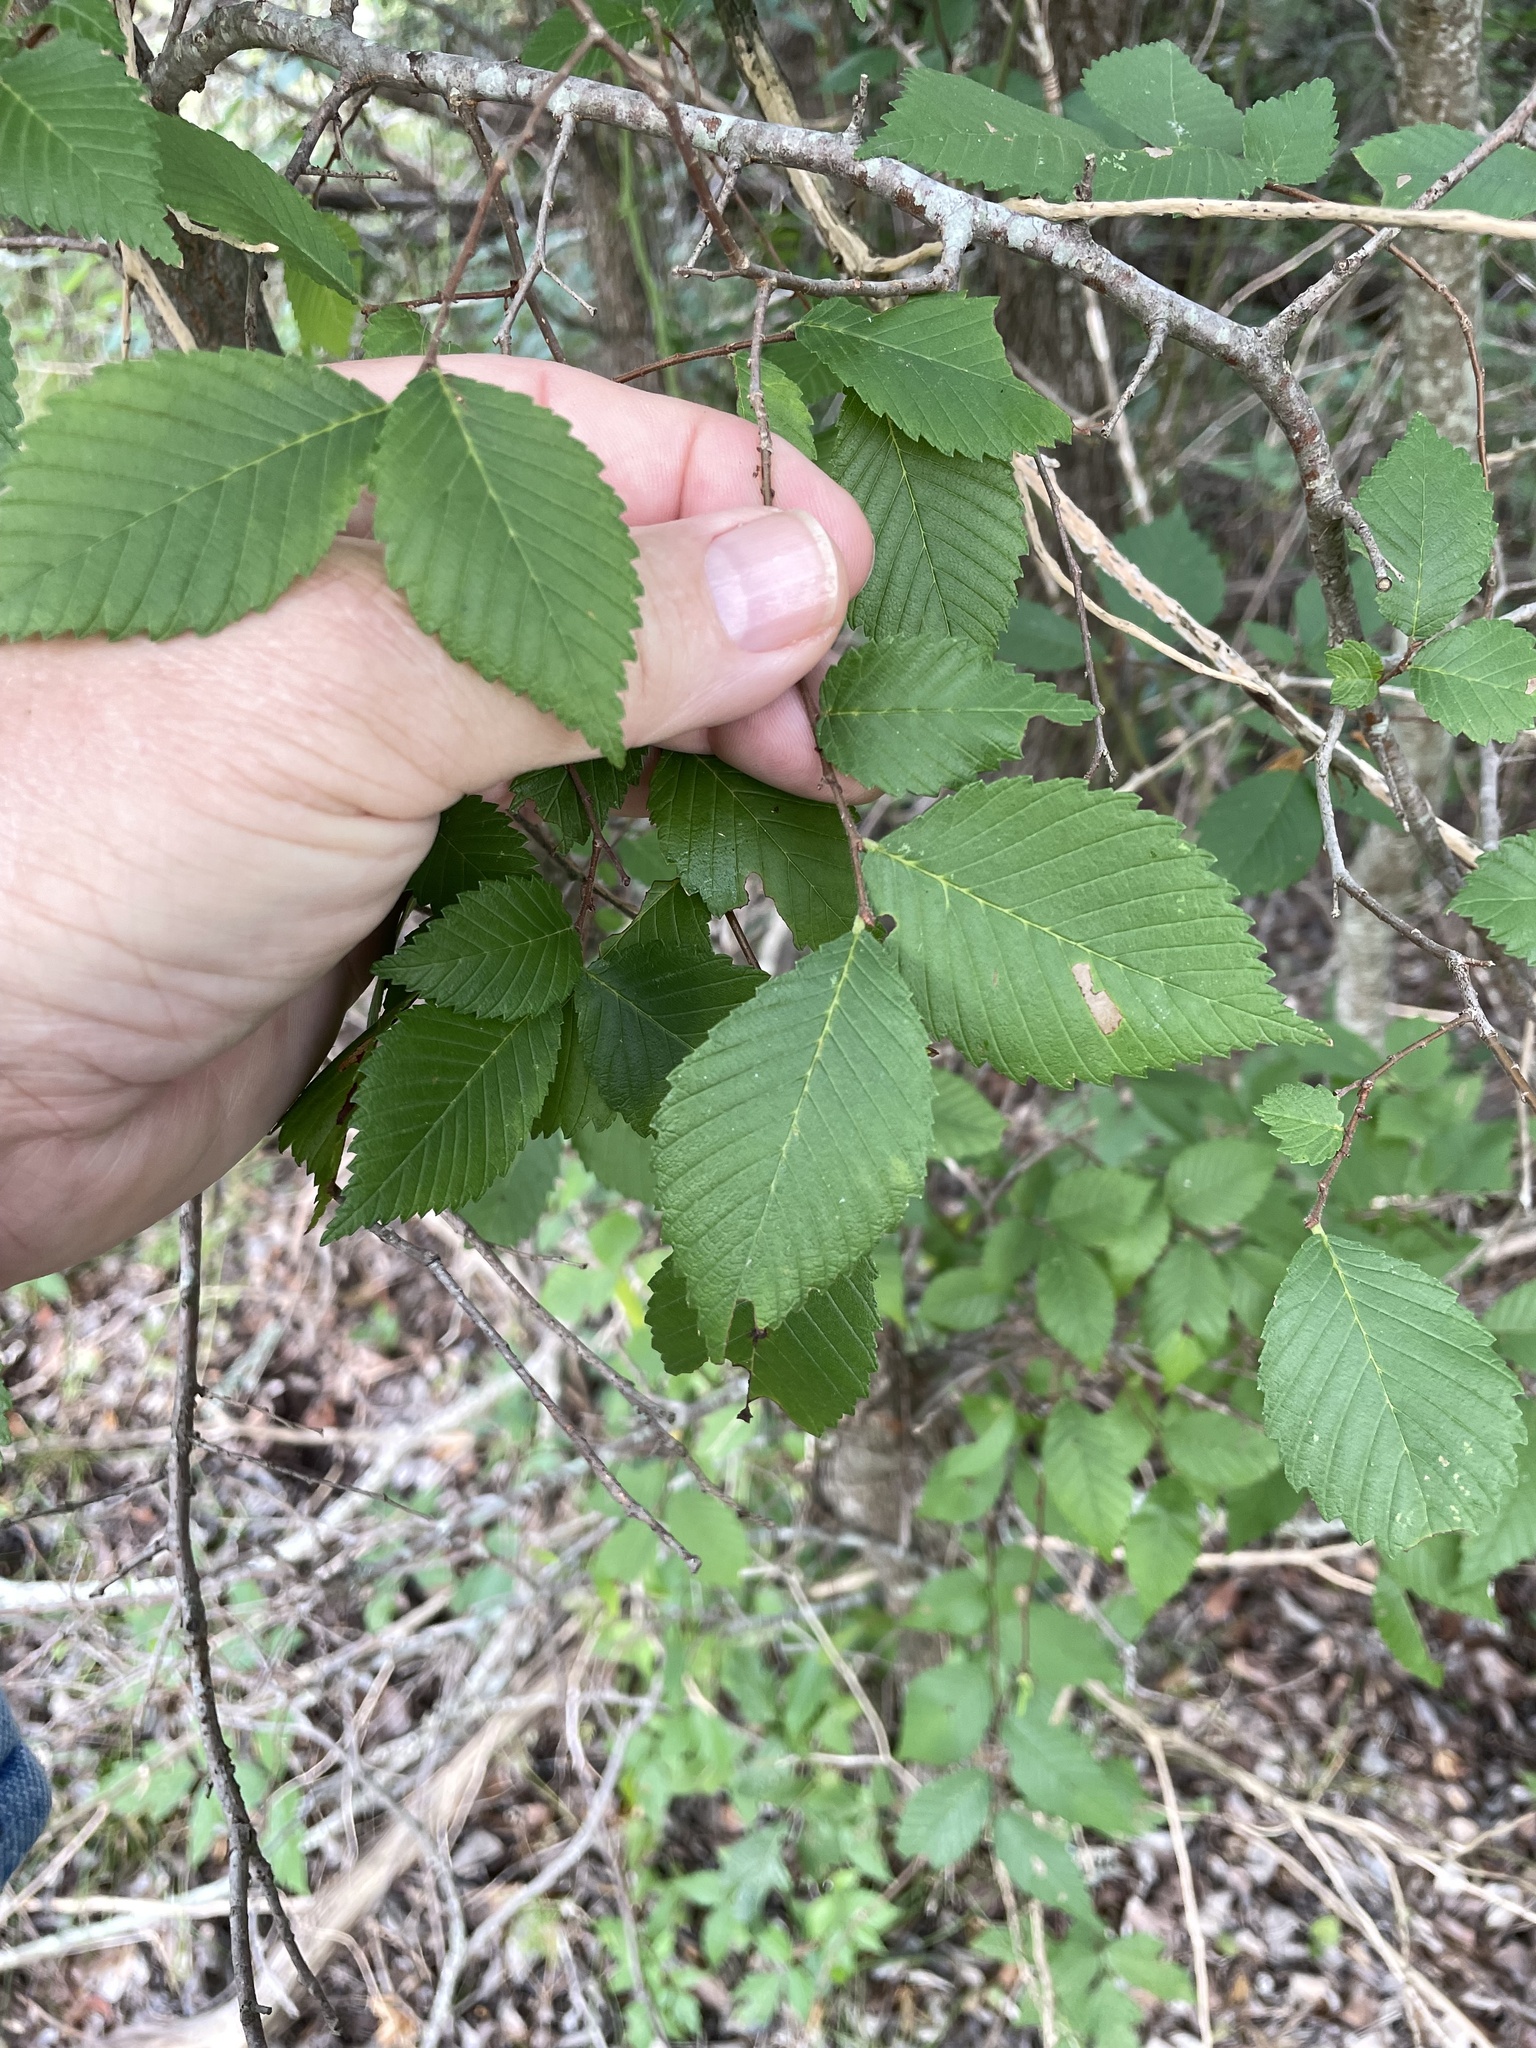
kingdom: Plantae
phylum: Tracheophyta
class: Magnoliopsida
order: Rosales
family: Ulmaceae
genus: Ulmus
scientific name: Ulmus americana
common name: American elm
